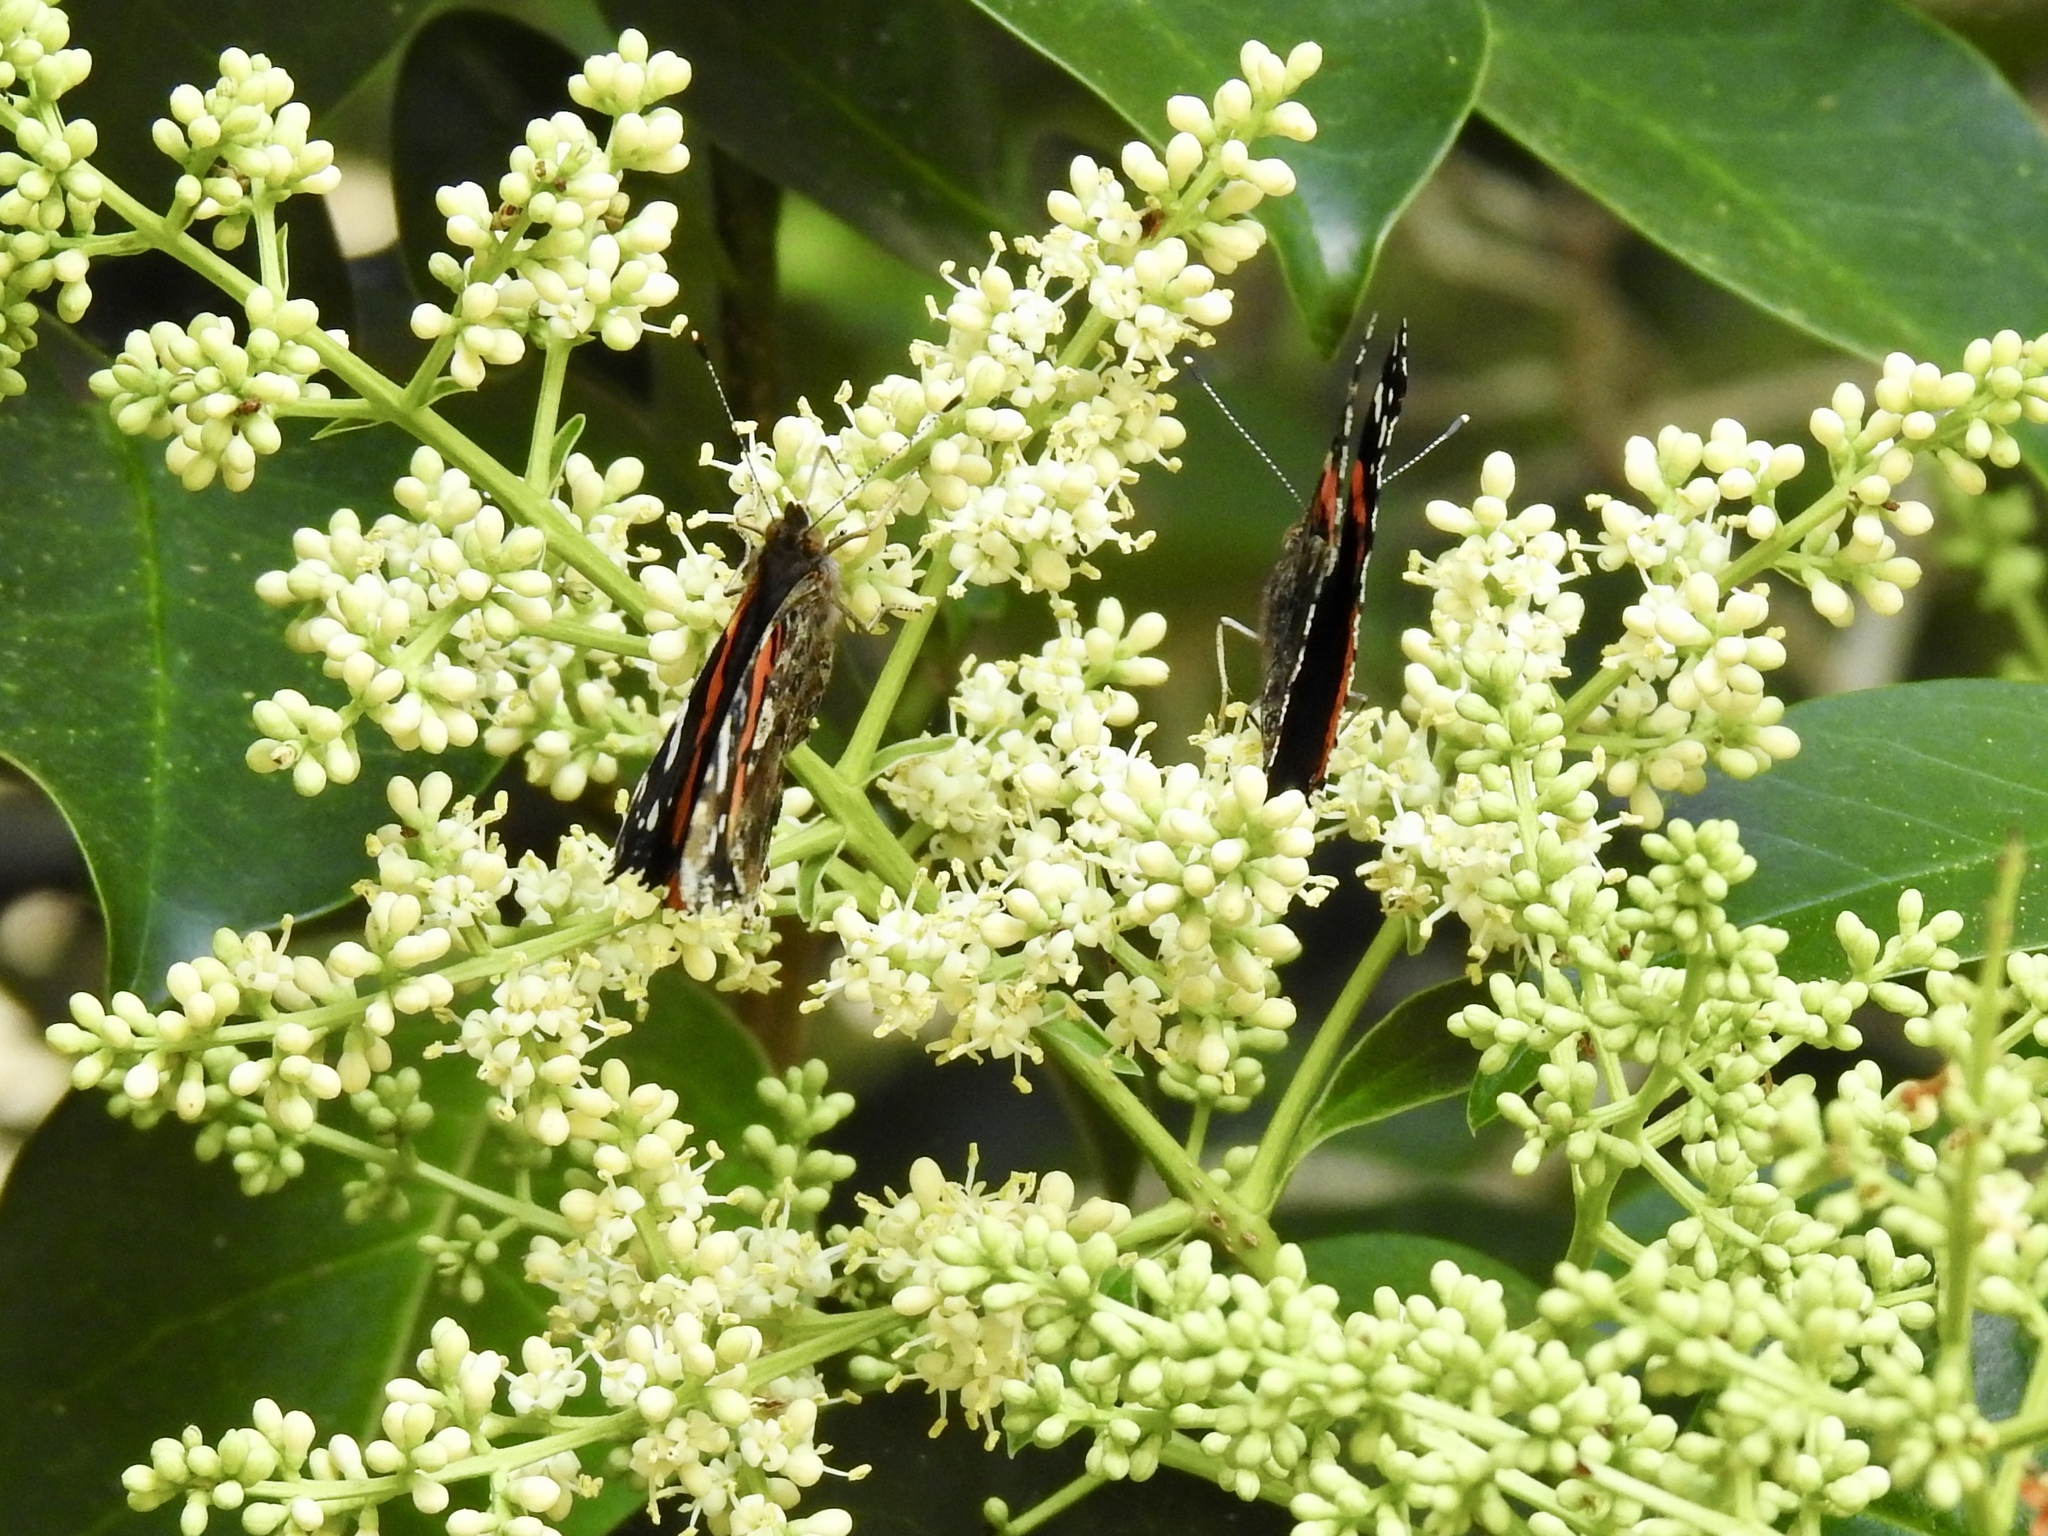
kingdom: Animalia
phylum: Arthropoda
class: Insecta
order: Lepidoptera
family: Nymphalidae
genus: Vanessa
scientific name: Vanessa atalanta
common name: Red admiral
